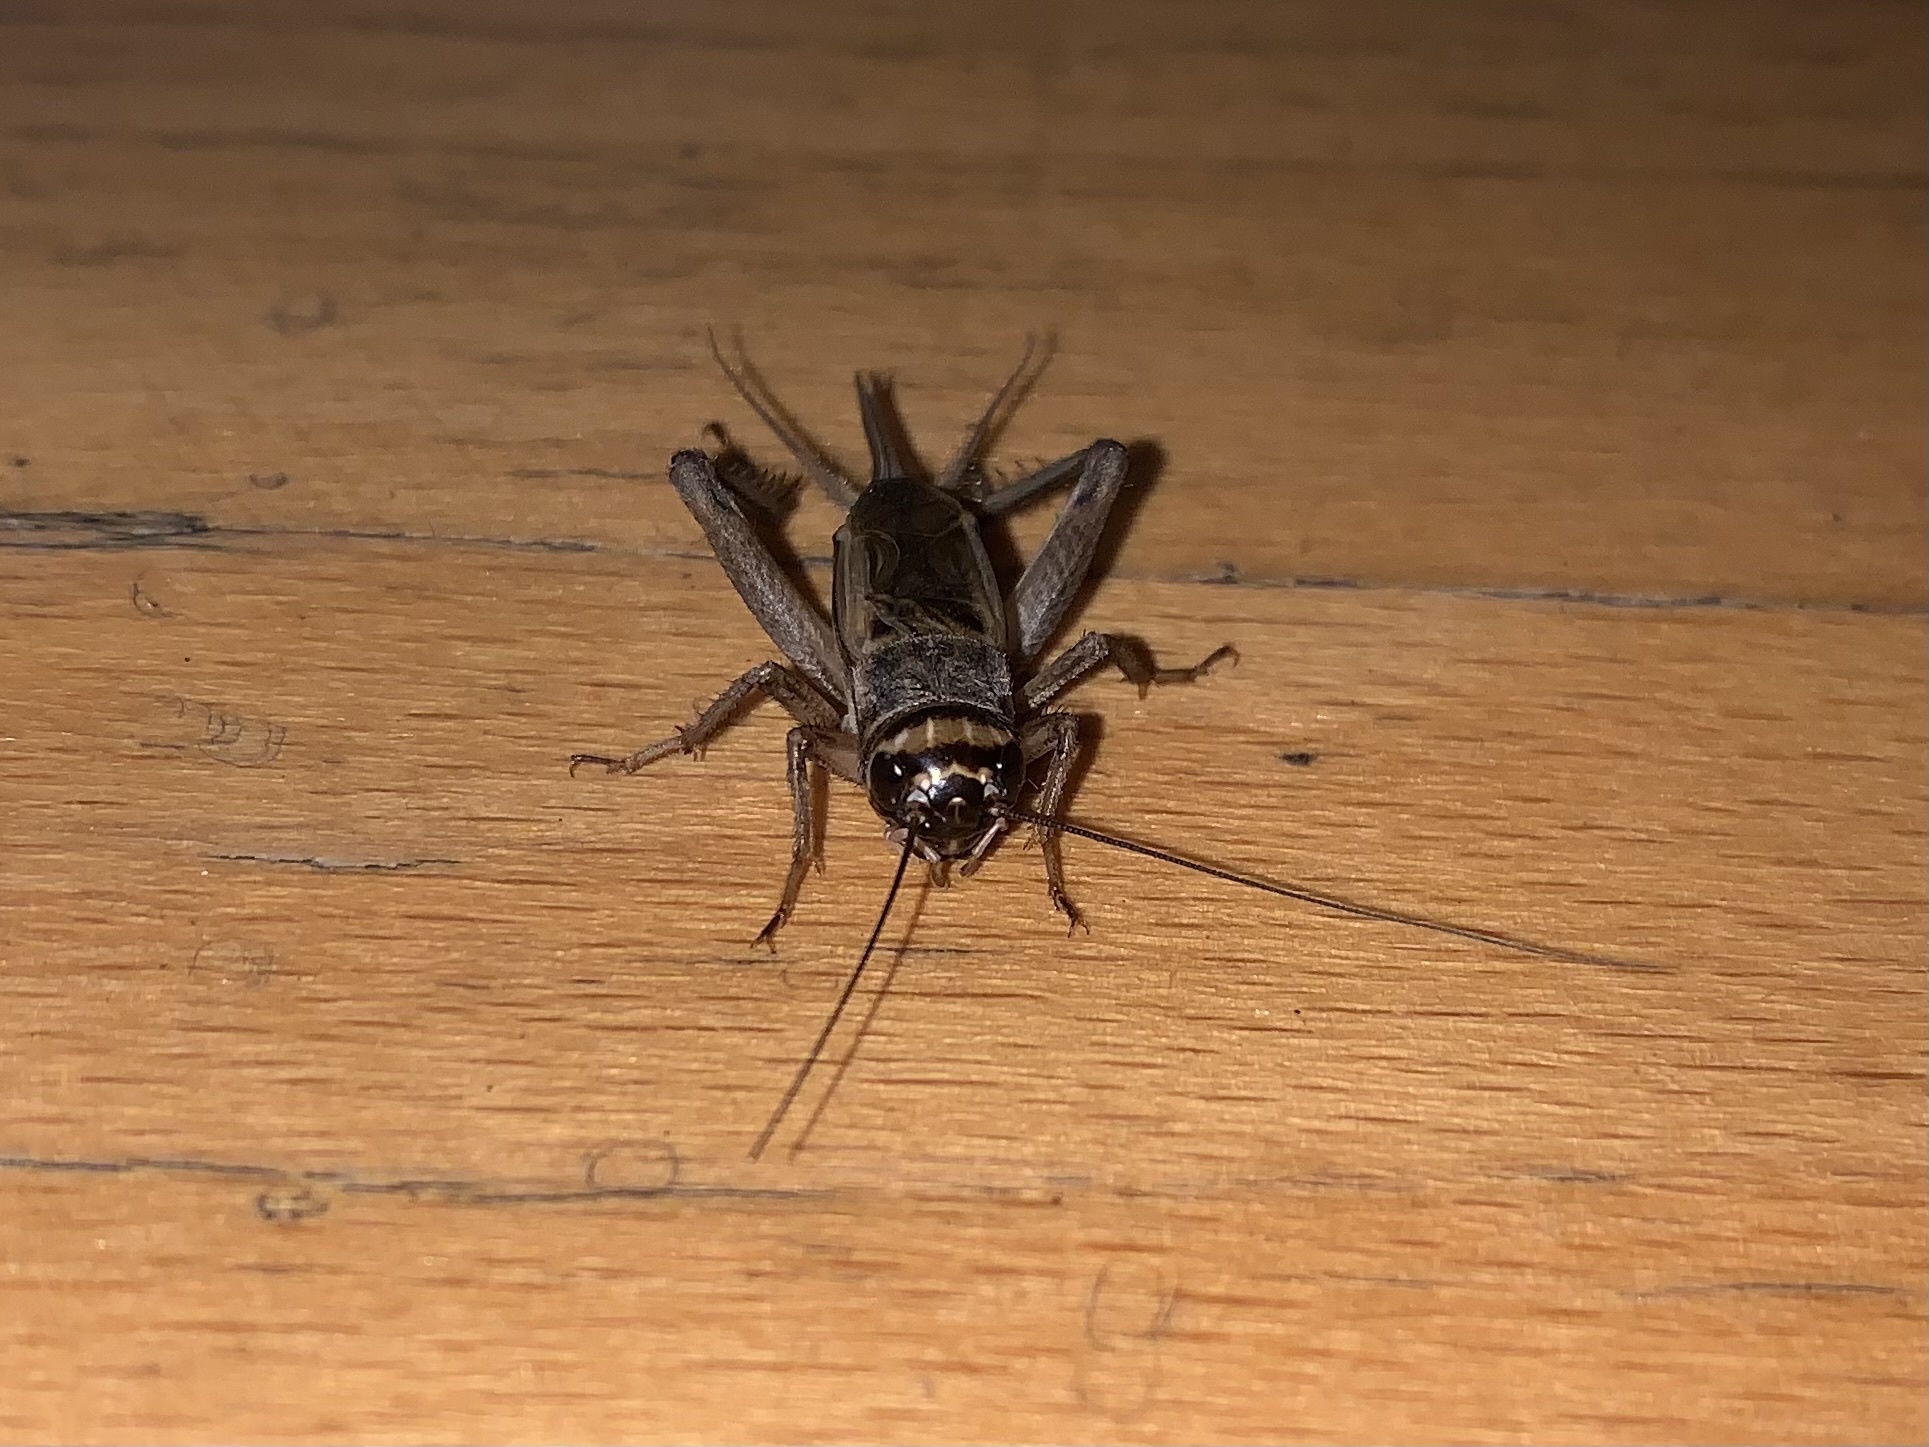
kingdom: Animalia
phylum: Arthropoda
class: Insecta
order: Orthoptera
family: Gryllidae
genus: Acheta
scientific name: Acheta domesticus
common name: House cricket
